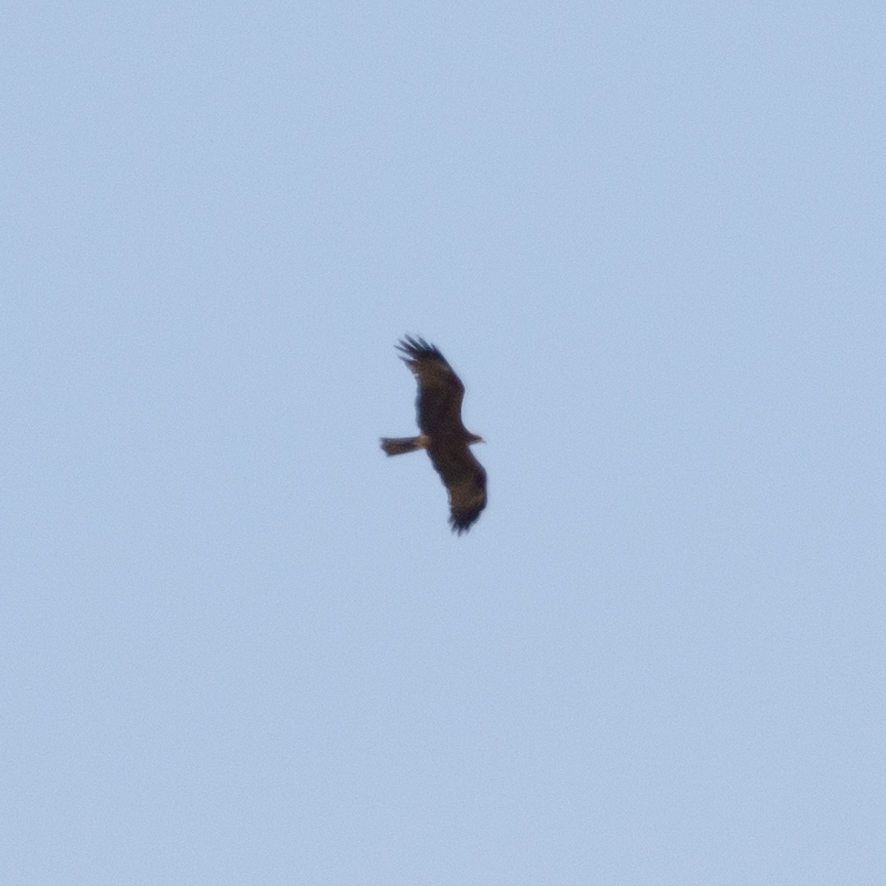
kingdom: Animalia
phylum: Chordata
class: Aves
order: Accipitriformes
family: Accipitridae
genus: Milvus
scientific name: Milvus migrans
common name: Black kite
